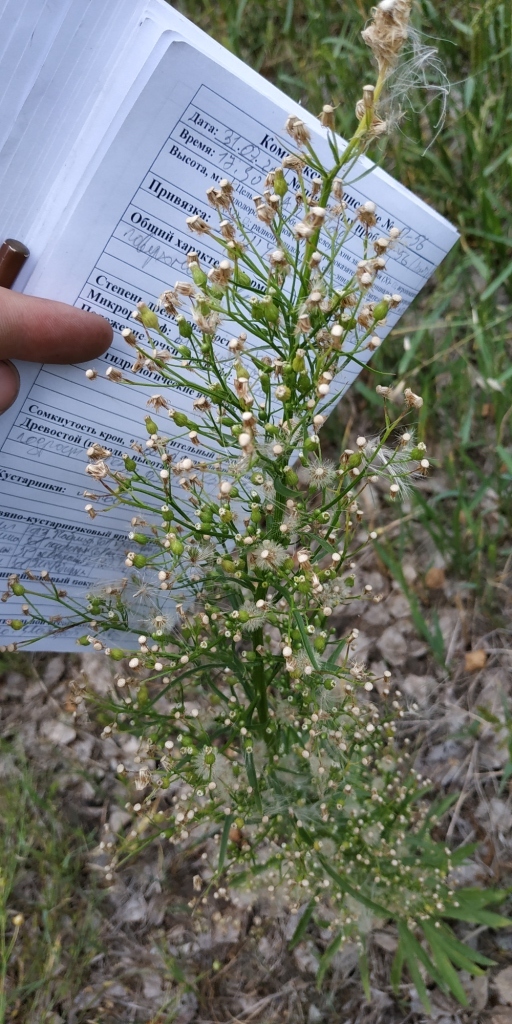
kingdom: Plantae
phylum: Tracheophyta
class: Magnoliopsida
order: Asterales
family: Asteraceae
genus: Erigeron
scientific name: Erigeron canadensis
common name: Canadian fleabane
